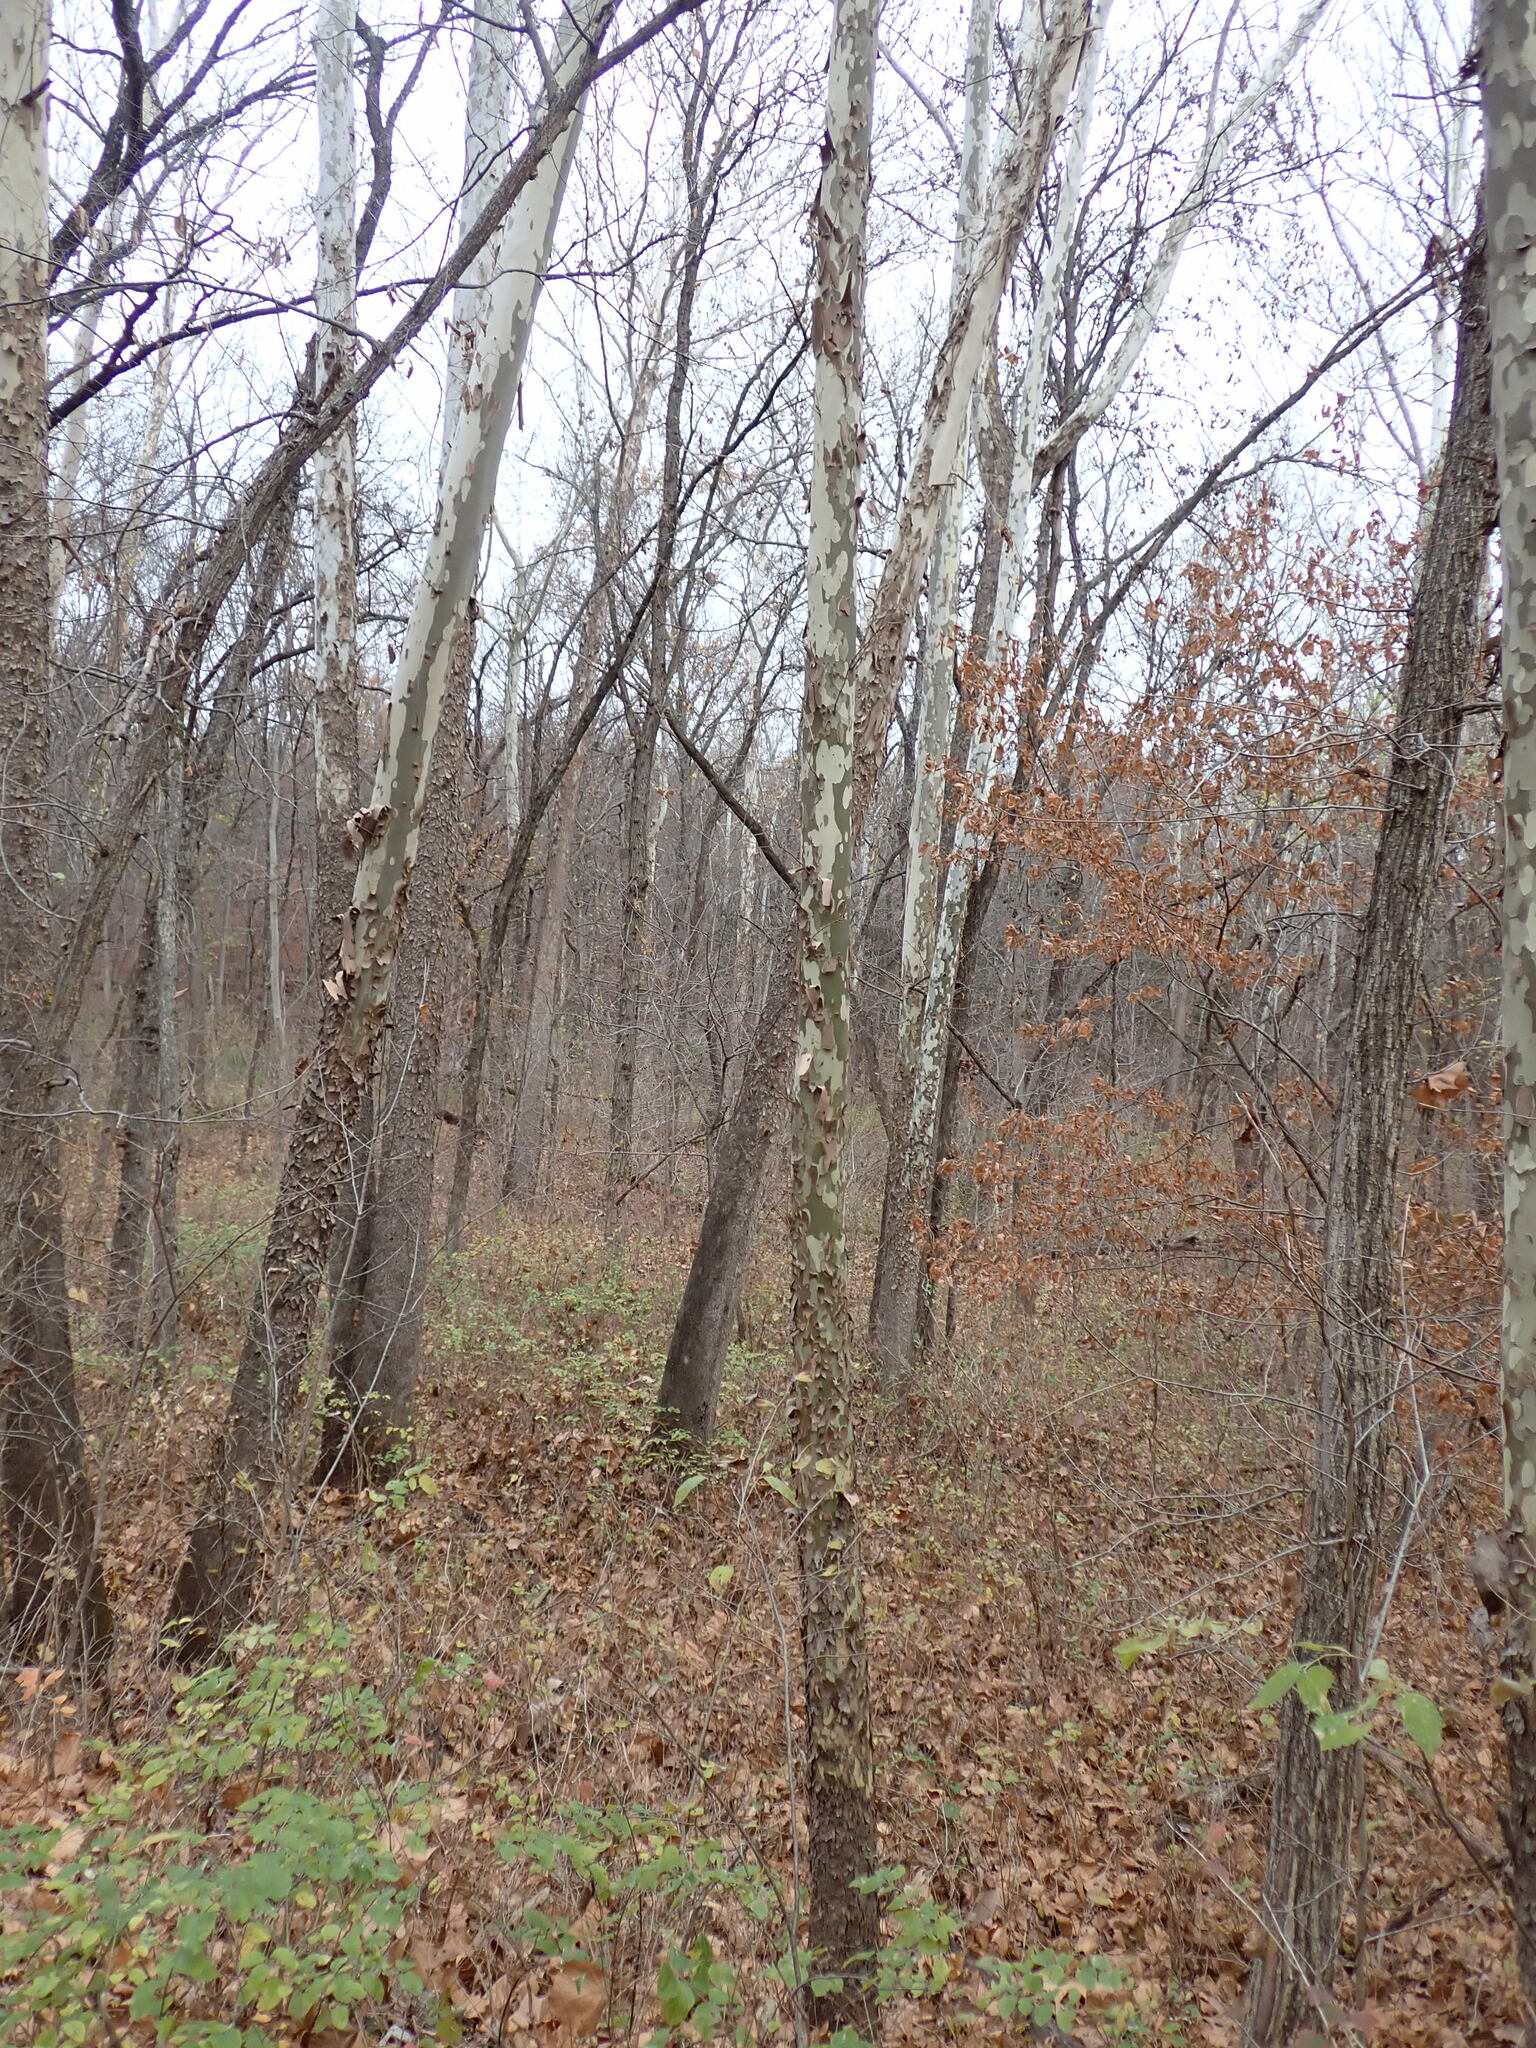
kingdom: Plantae
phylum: Tracheophyta
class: Magnoliopsida
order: Proteales
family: Platanaceae
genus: Platanus
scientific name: Platanus occidentalis
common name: American sycamore
